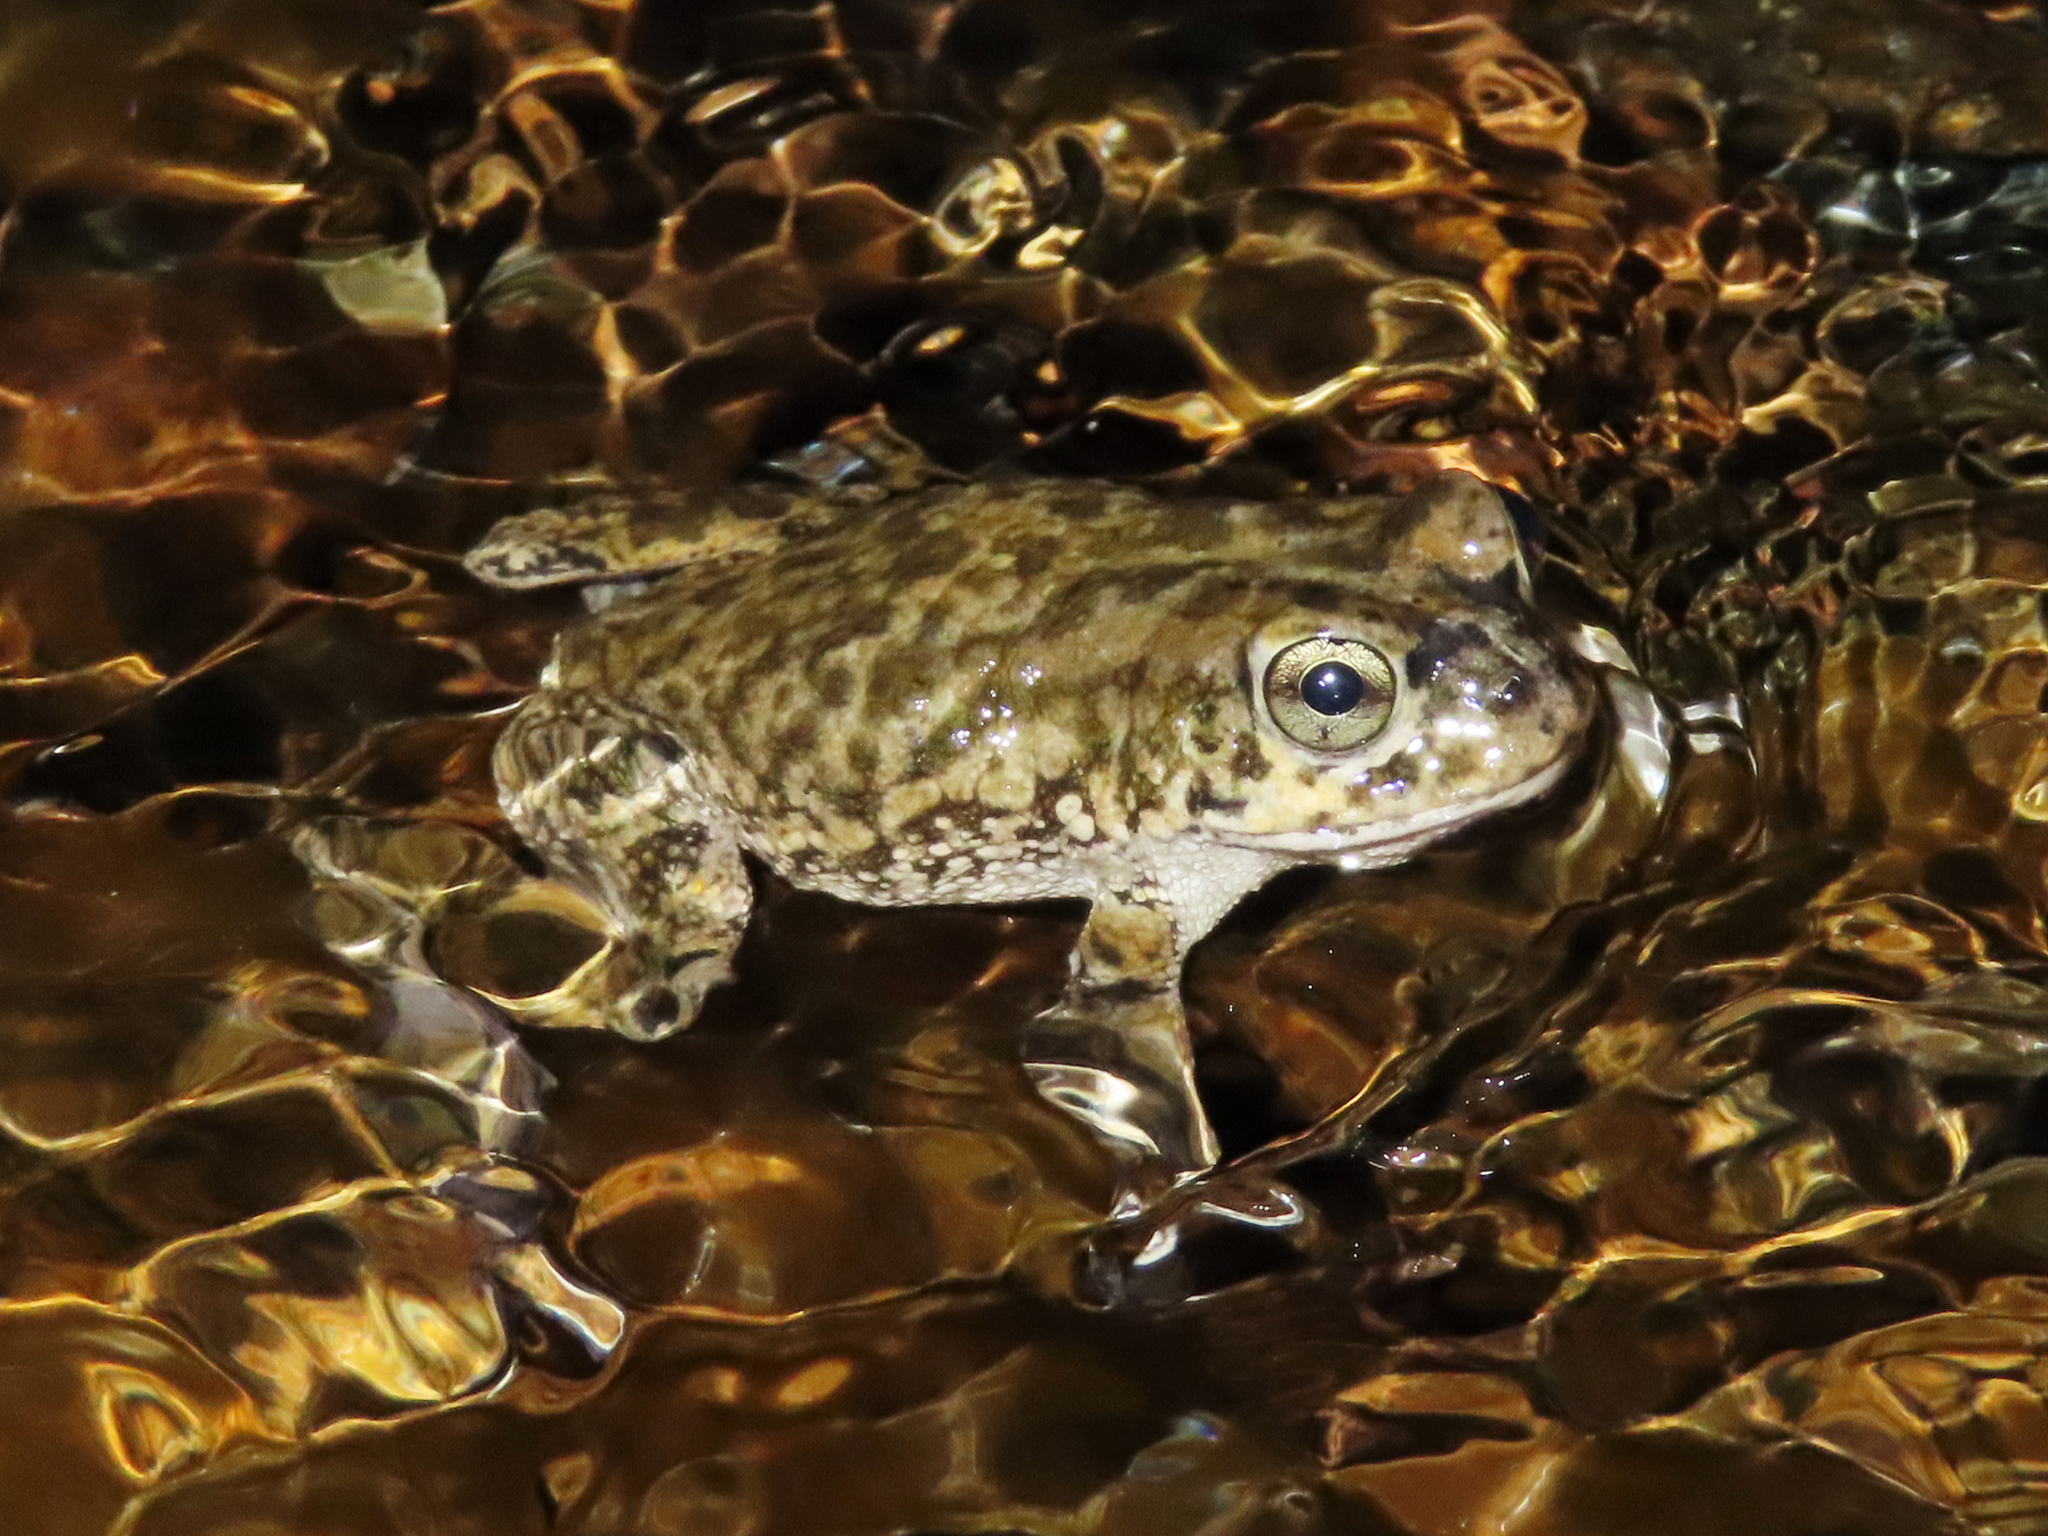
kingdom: Animalia
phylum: Chordata
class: Amphibia
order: Anura
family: Bufonidae
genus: Sclerophrys
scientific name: Sclerophrys arabica
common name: Arabian toad
